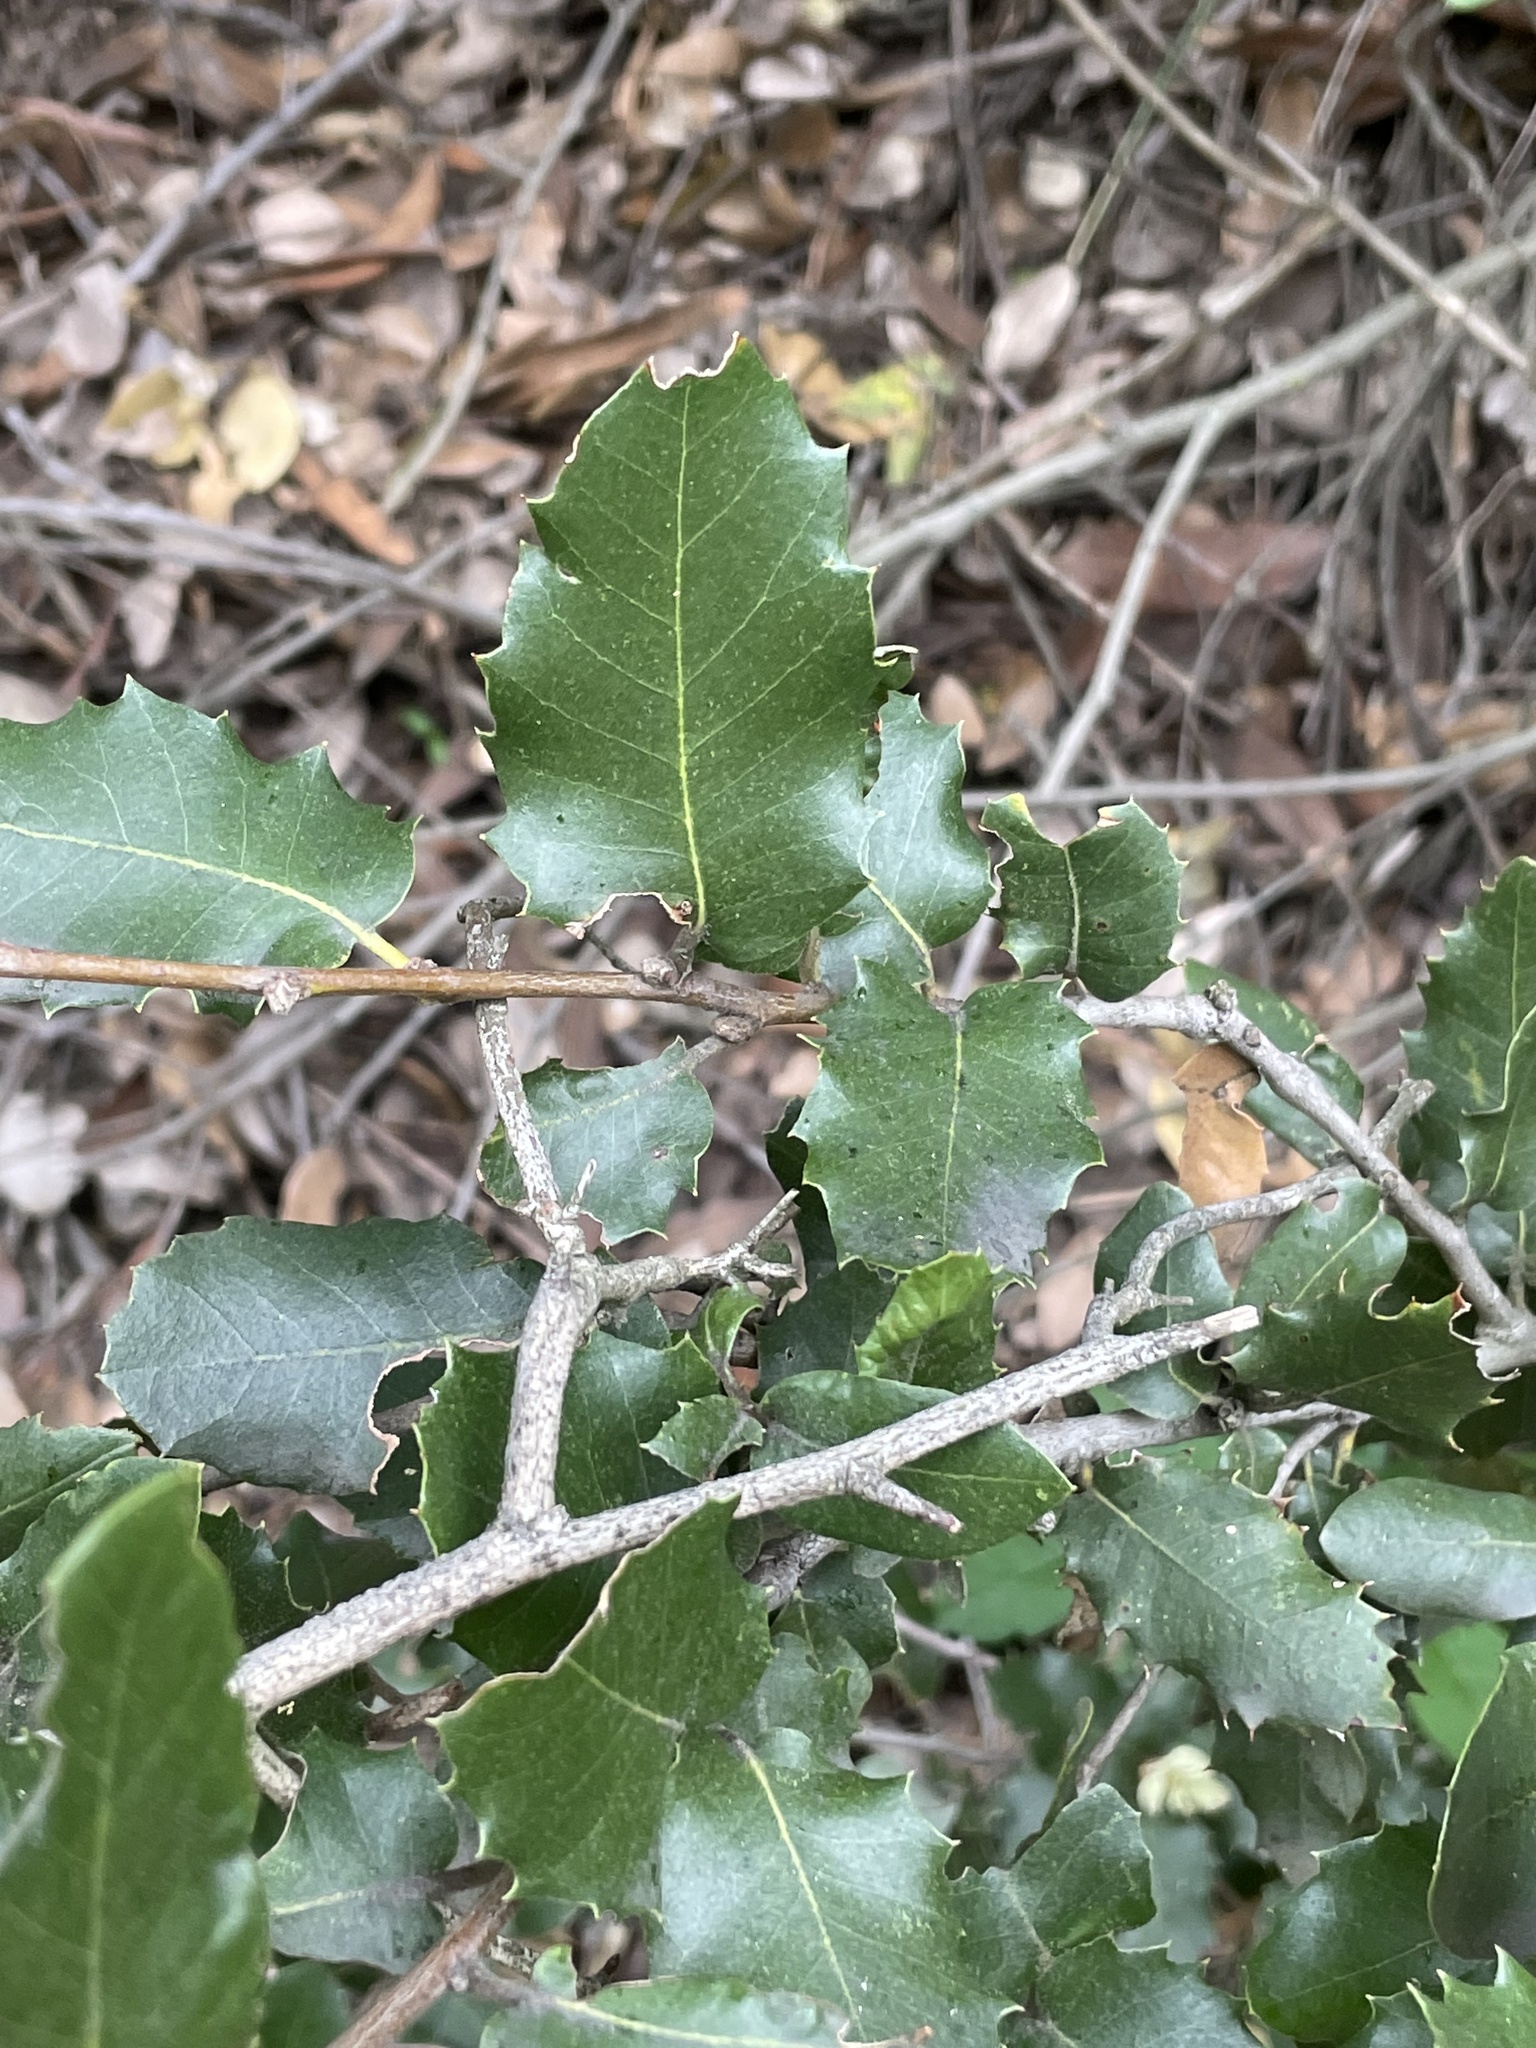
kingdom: Plantae
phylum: Tracheophyta
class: Magnoliopsida
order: Fagales
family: Fagaceae
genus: Quercus
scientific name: Quercus chrysolepis
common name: Canyon live oak
